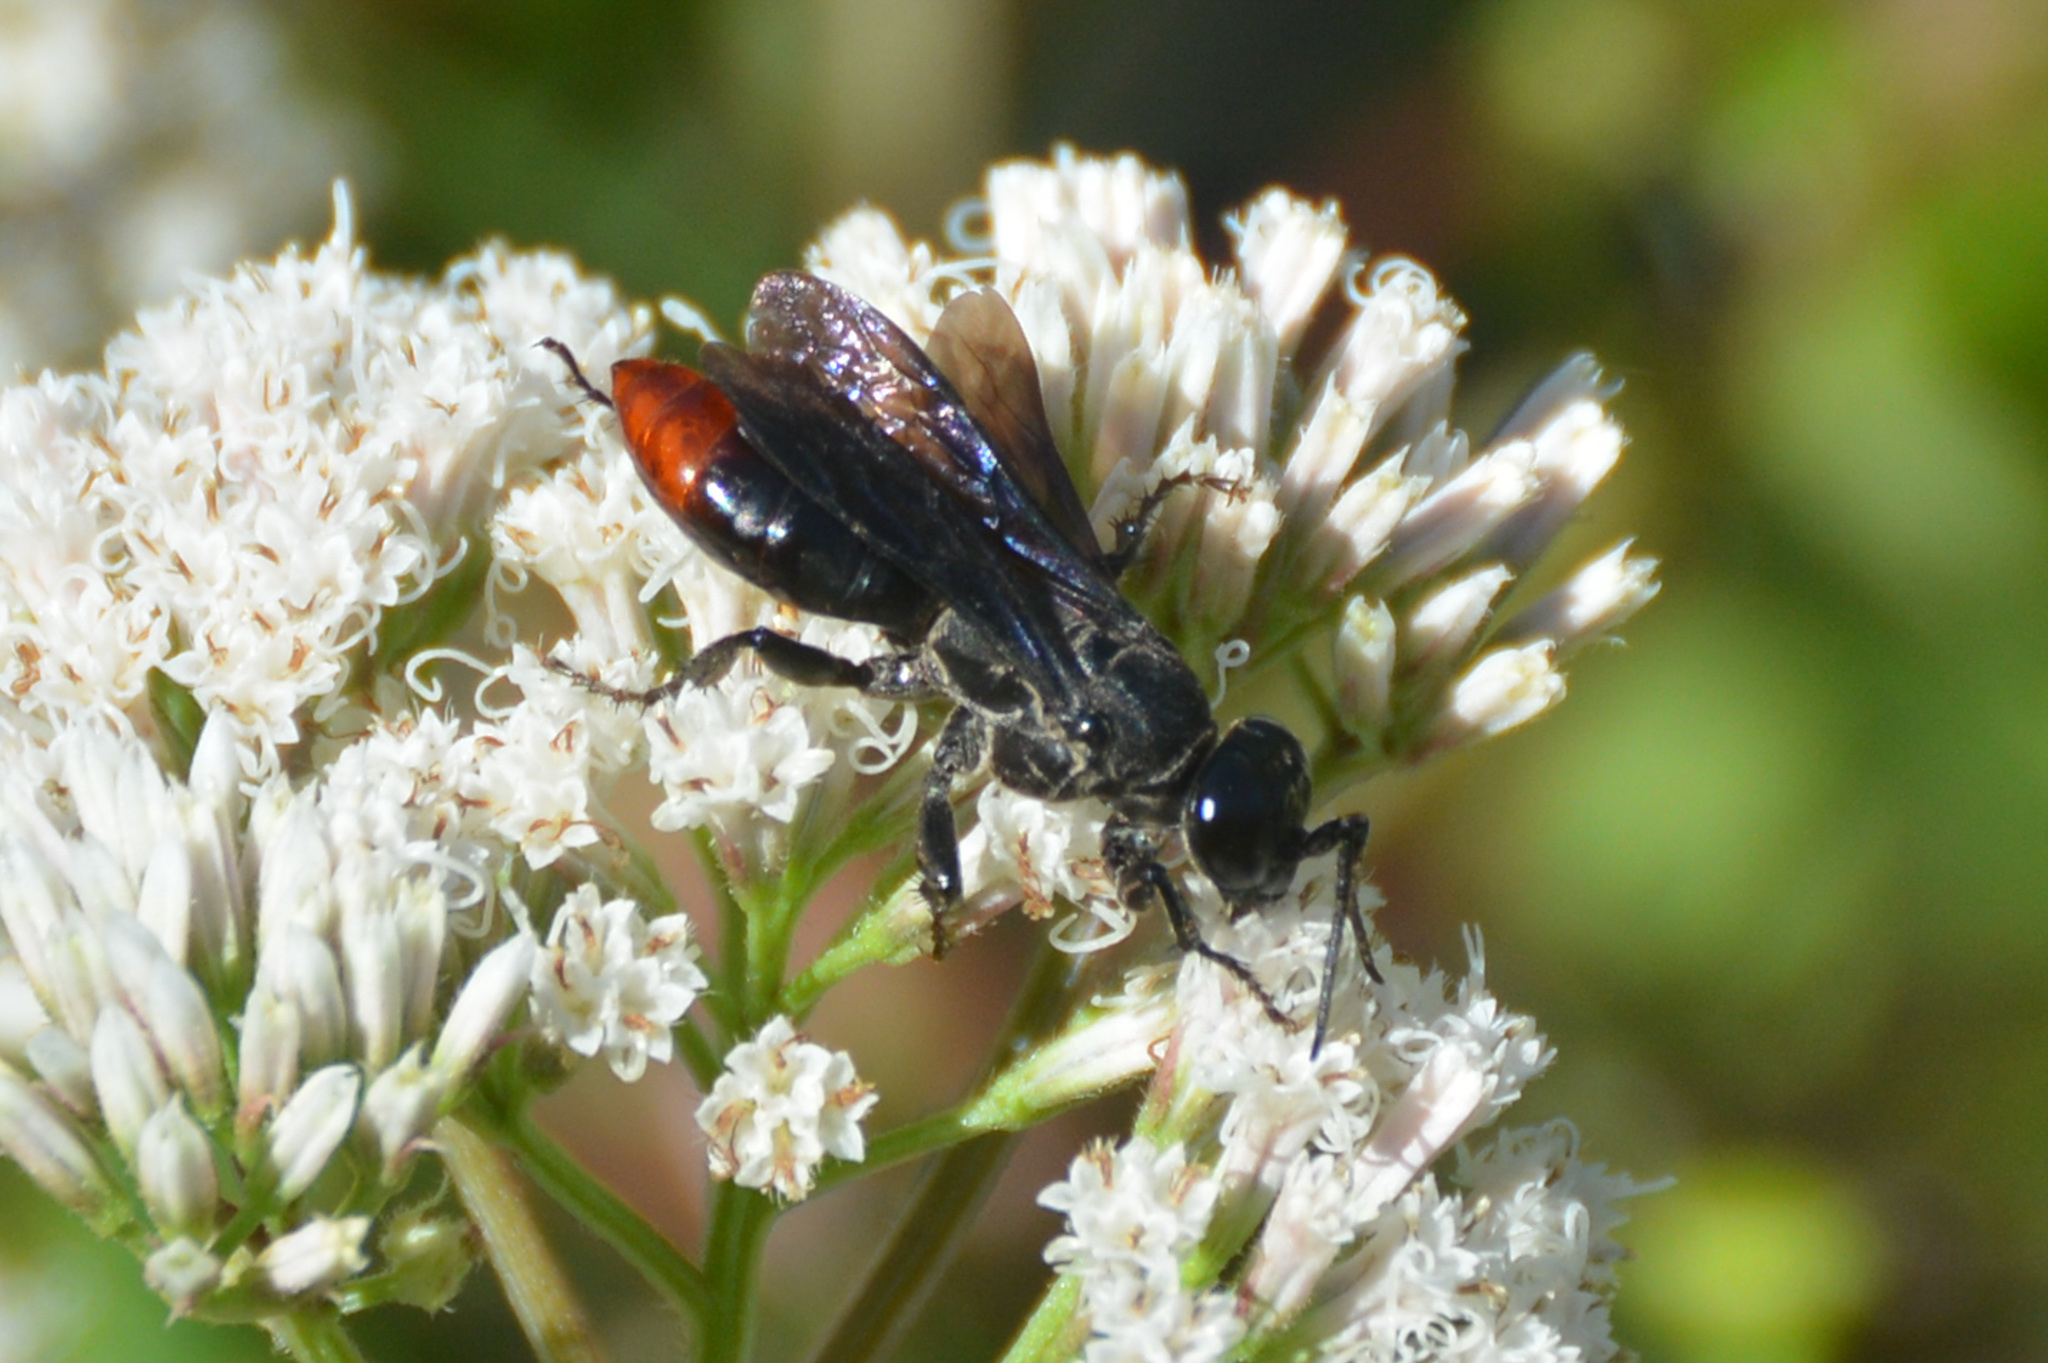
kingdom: Animalia
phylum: Arthropoda
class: Insecta
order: Hymenoptera
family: Crabronidae
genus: Larra
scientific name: Larra analis
